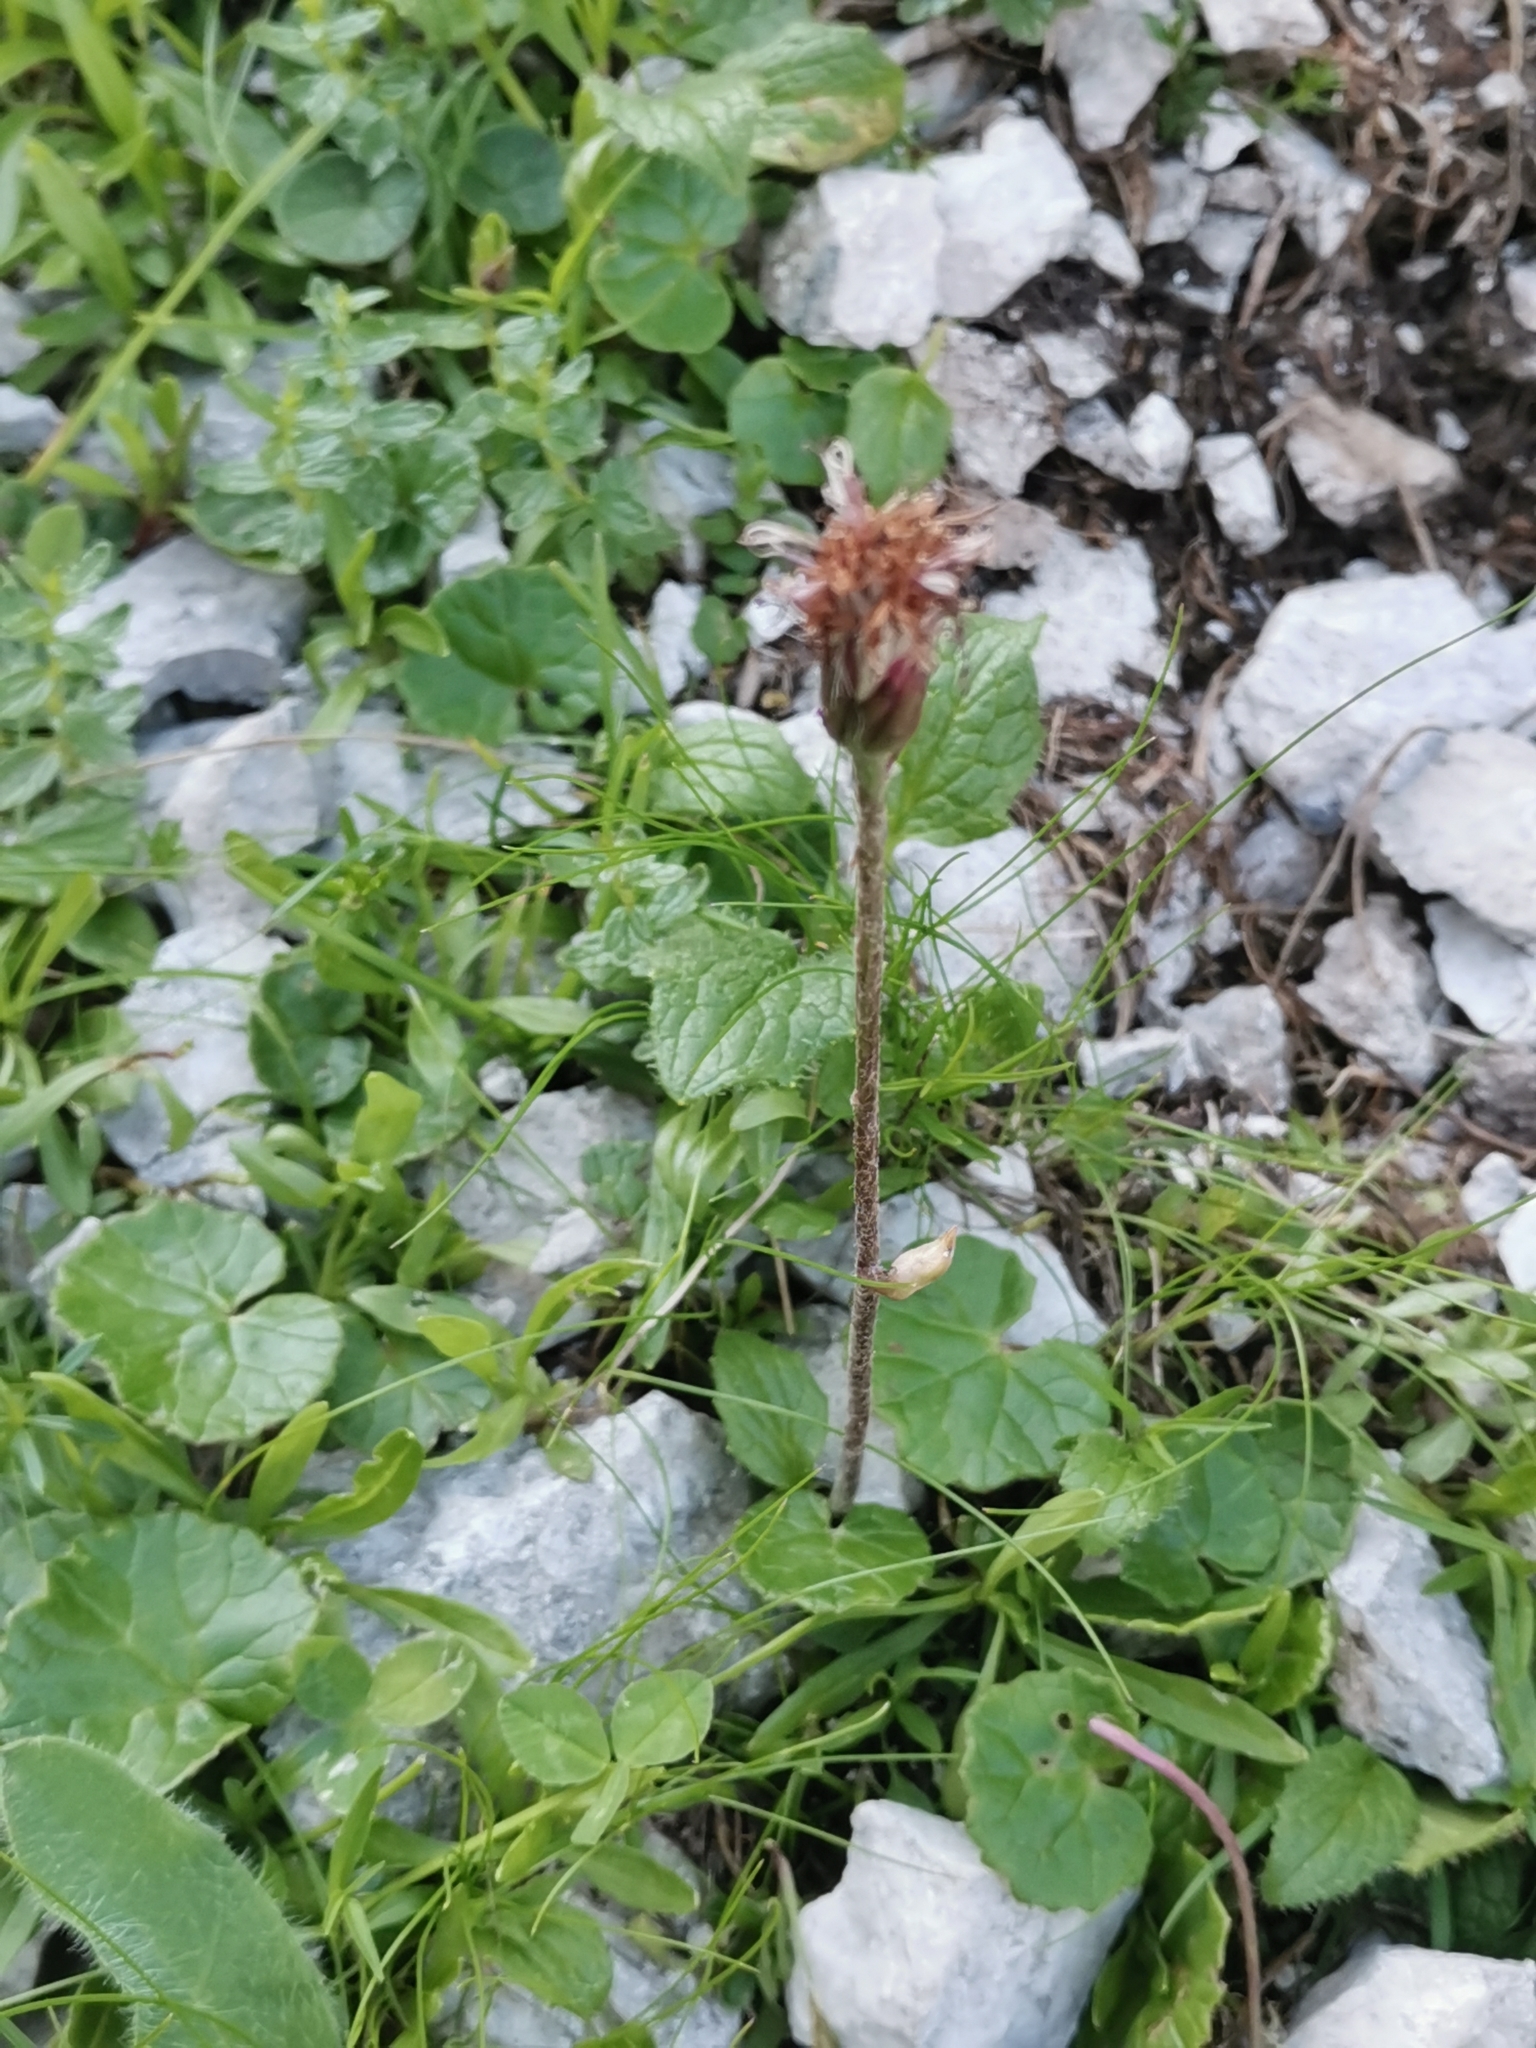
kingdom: Plantae
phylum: Tracheophyta
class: Magnoliopsida
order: Asterales
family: Asteraceae
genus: Homogyne
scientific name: Homogyne alpina
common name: Purple colt's-foot
